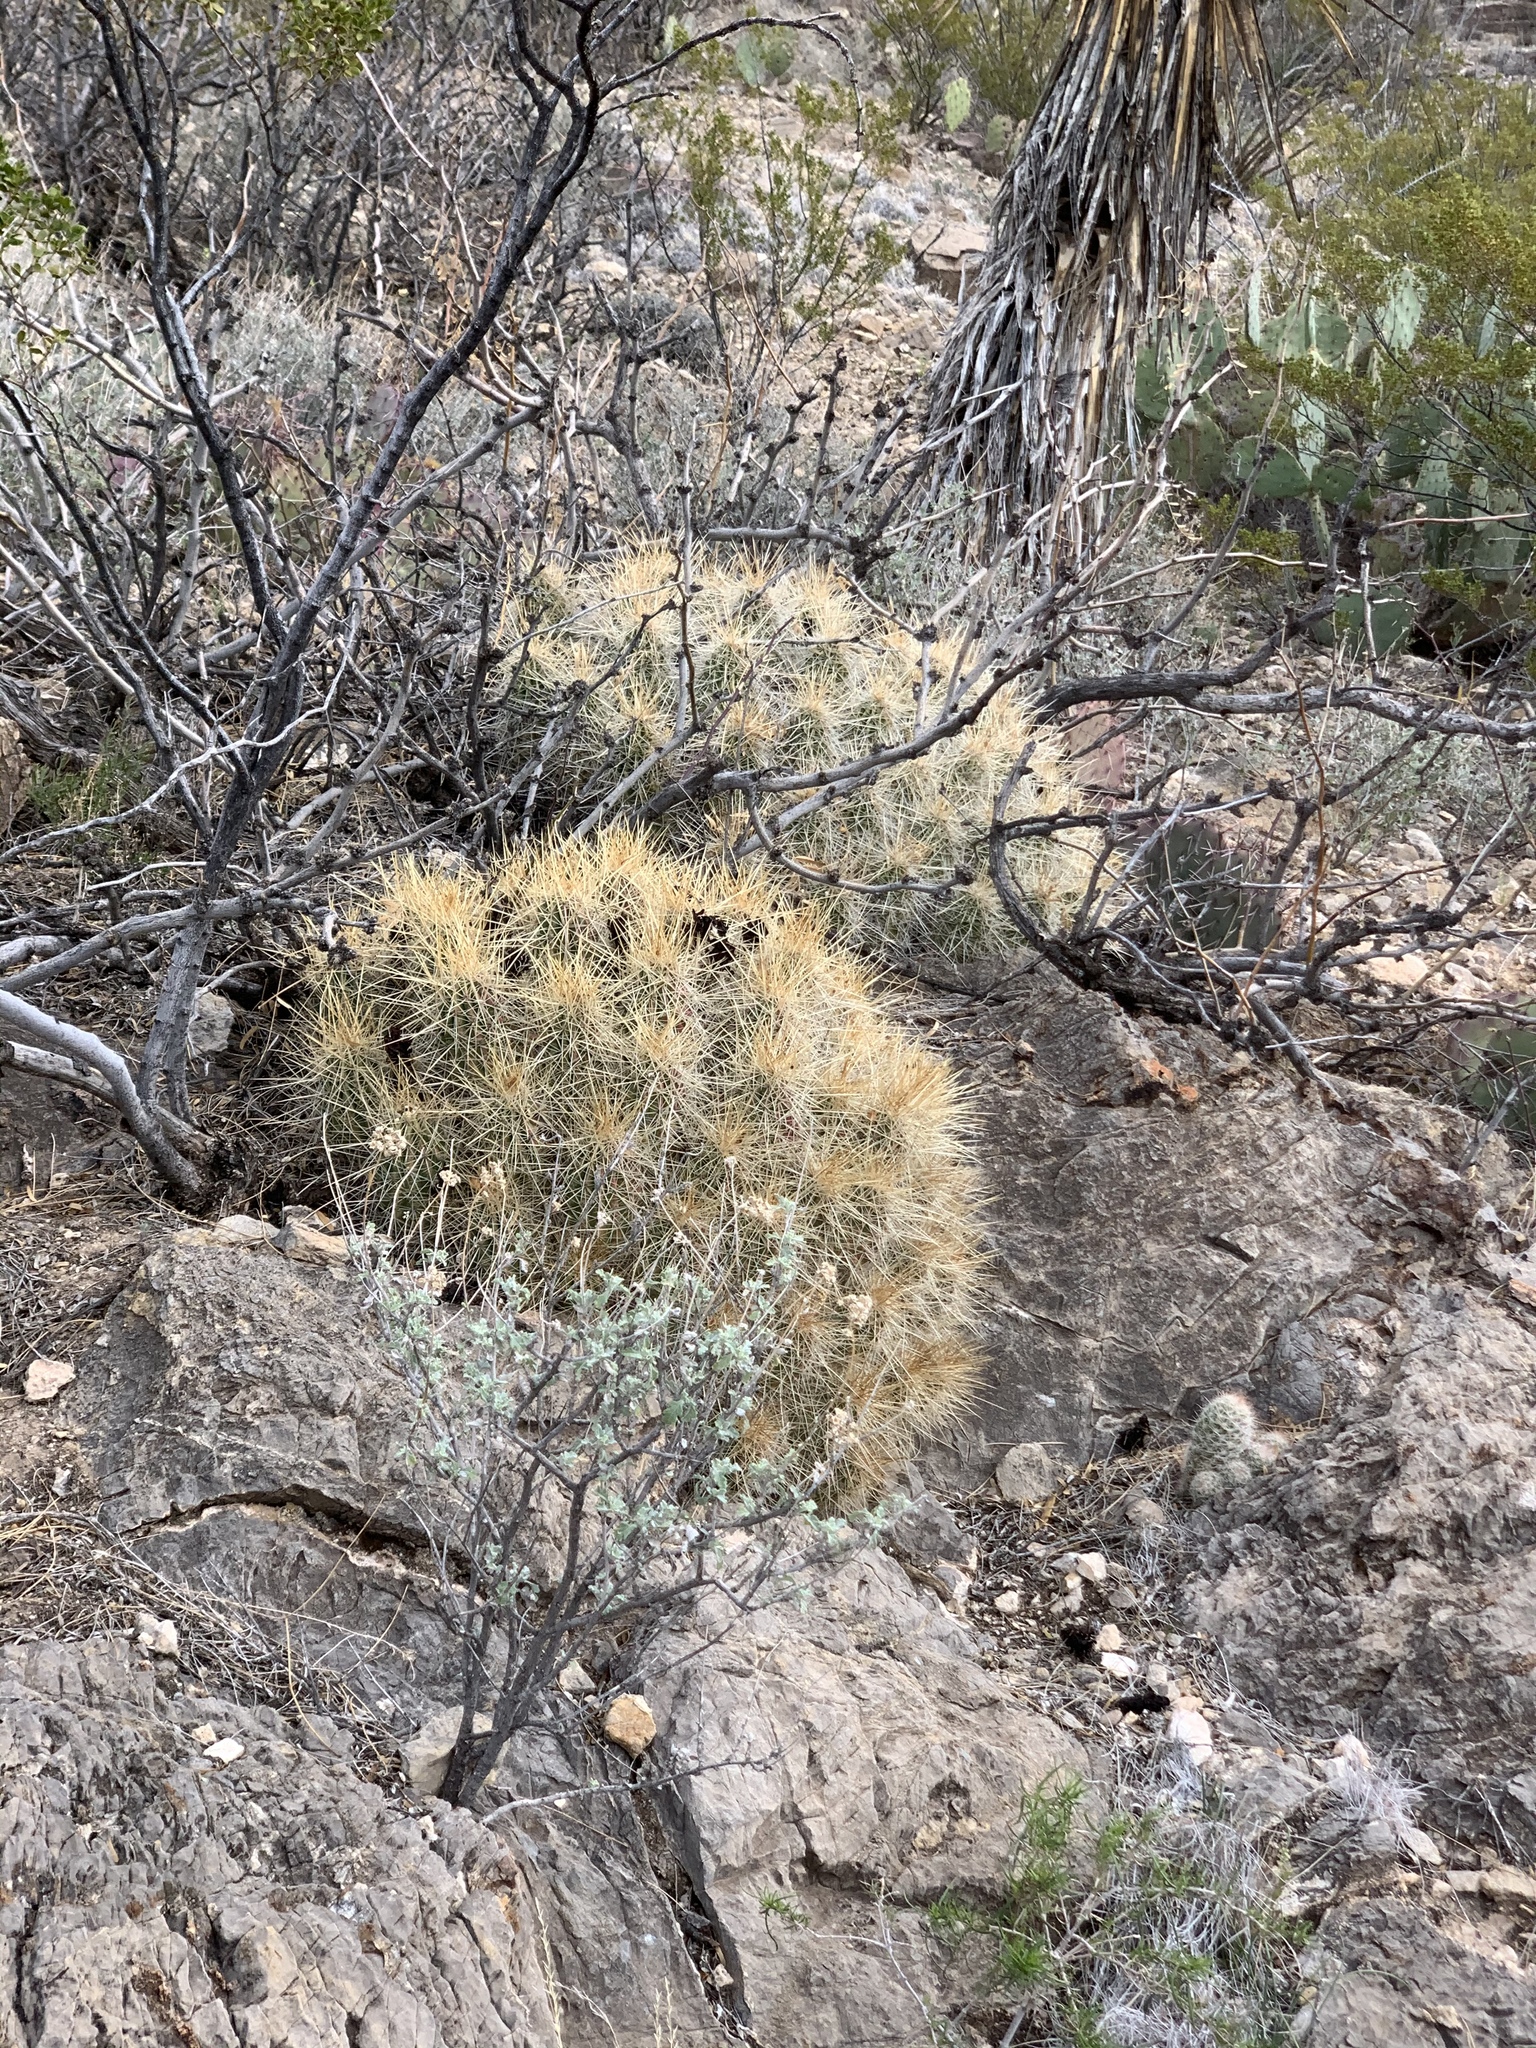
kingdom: Plantae
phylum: Tracheophyta
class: Magnoliopsida
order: Caryophyllales
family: Cactaceae
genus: Echinocereus
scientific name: Echinocereus stramineus
